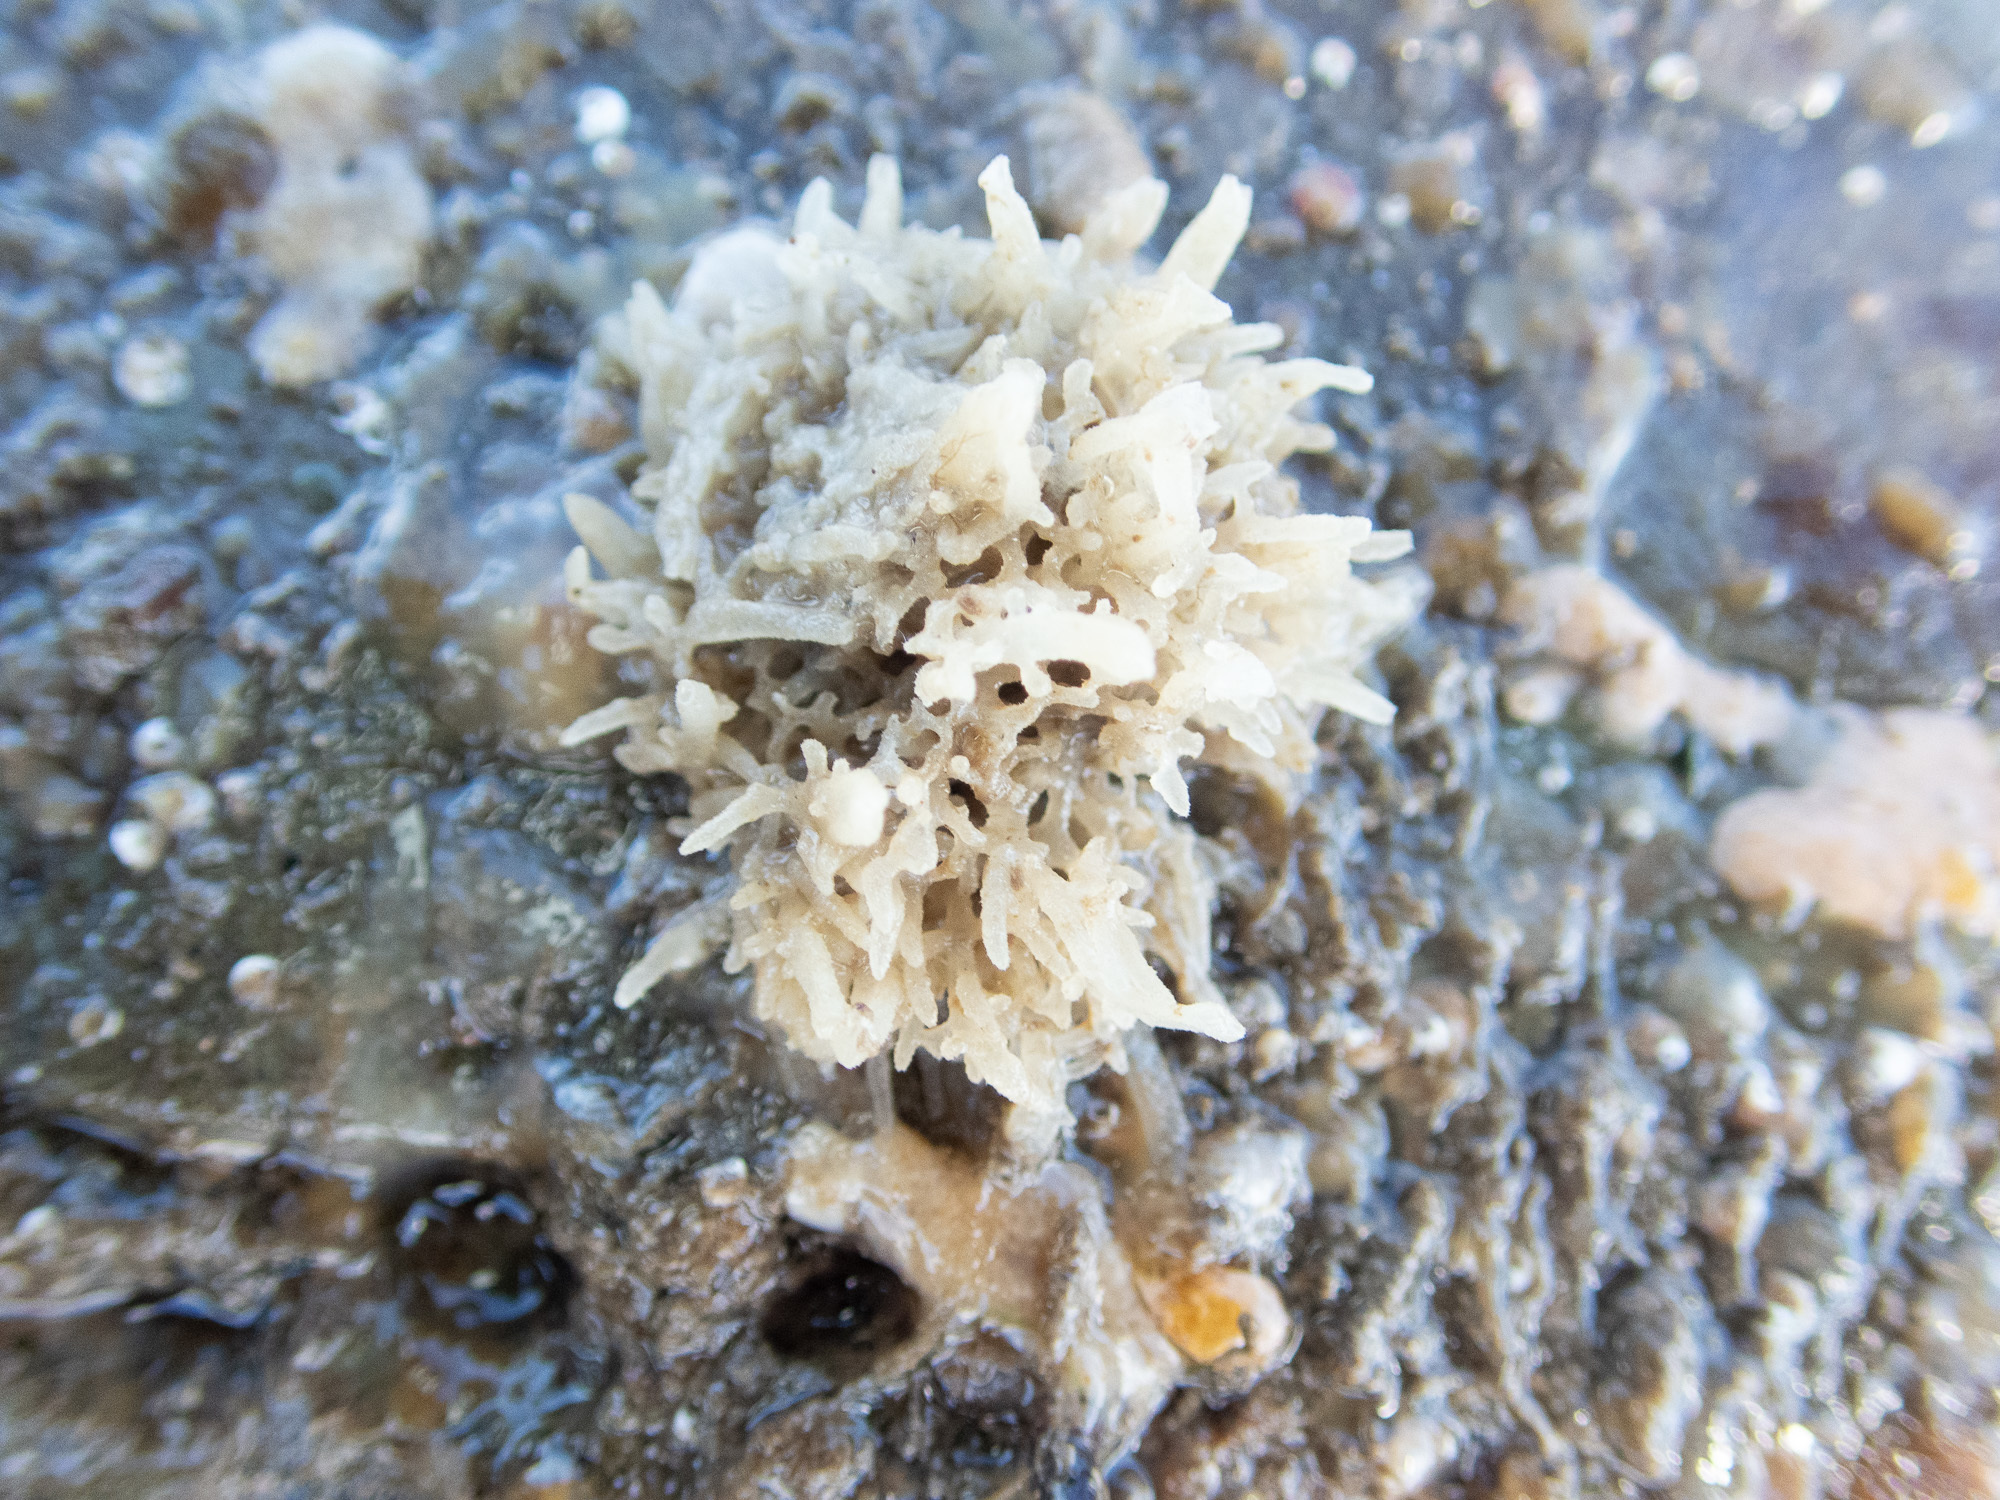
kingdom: Animalia
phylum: Porifera
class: Calcarea
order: Leucosolenida
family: Leucosoleniidae
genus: Leucosolenia
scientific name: Leucosolenia botryoides
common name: Orange pipe sponge
